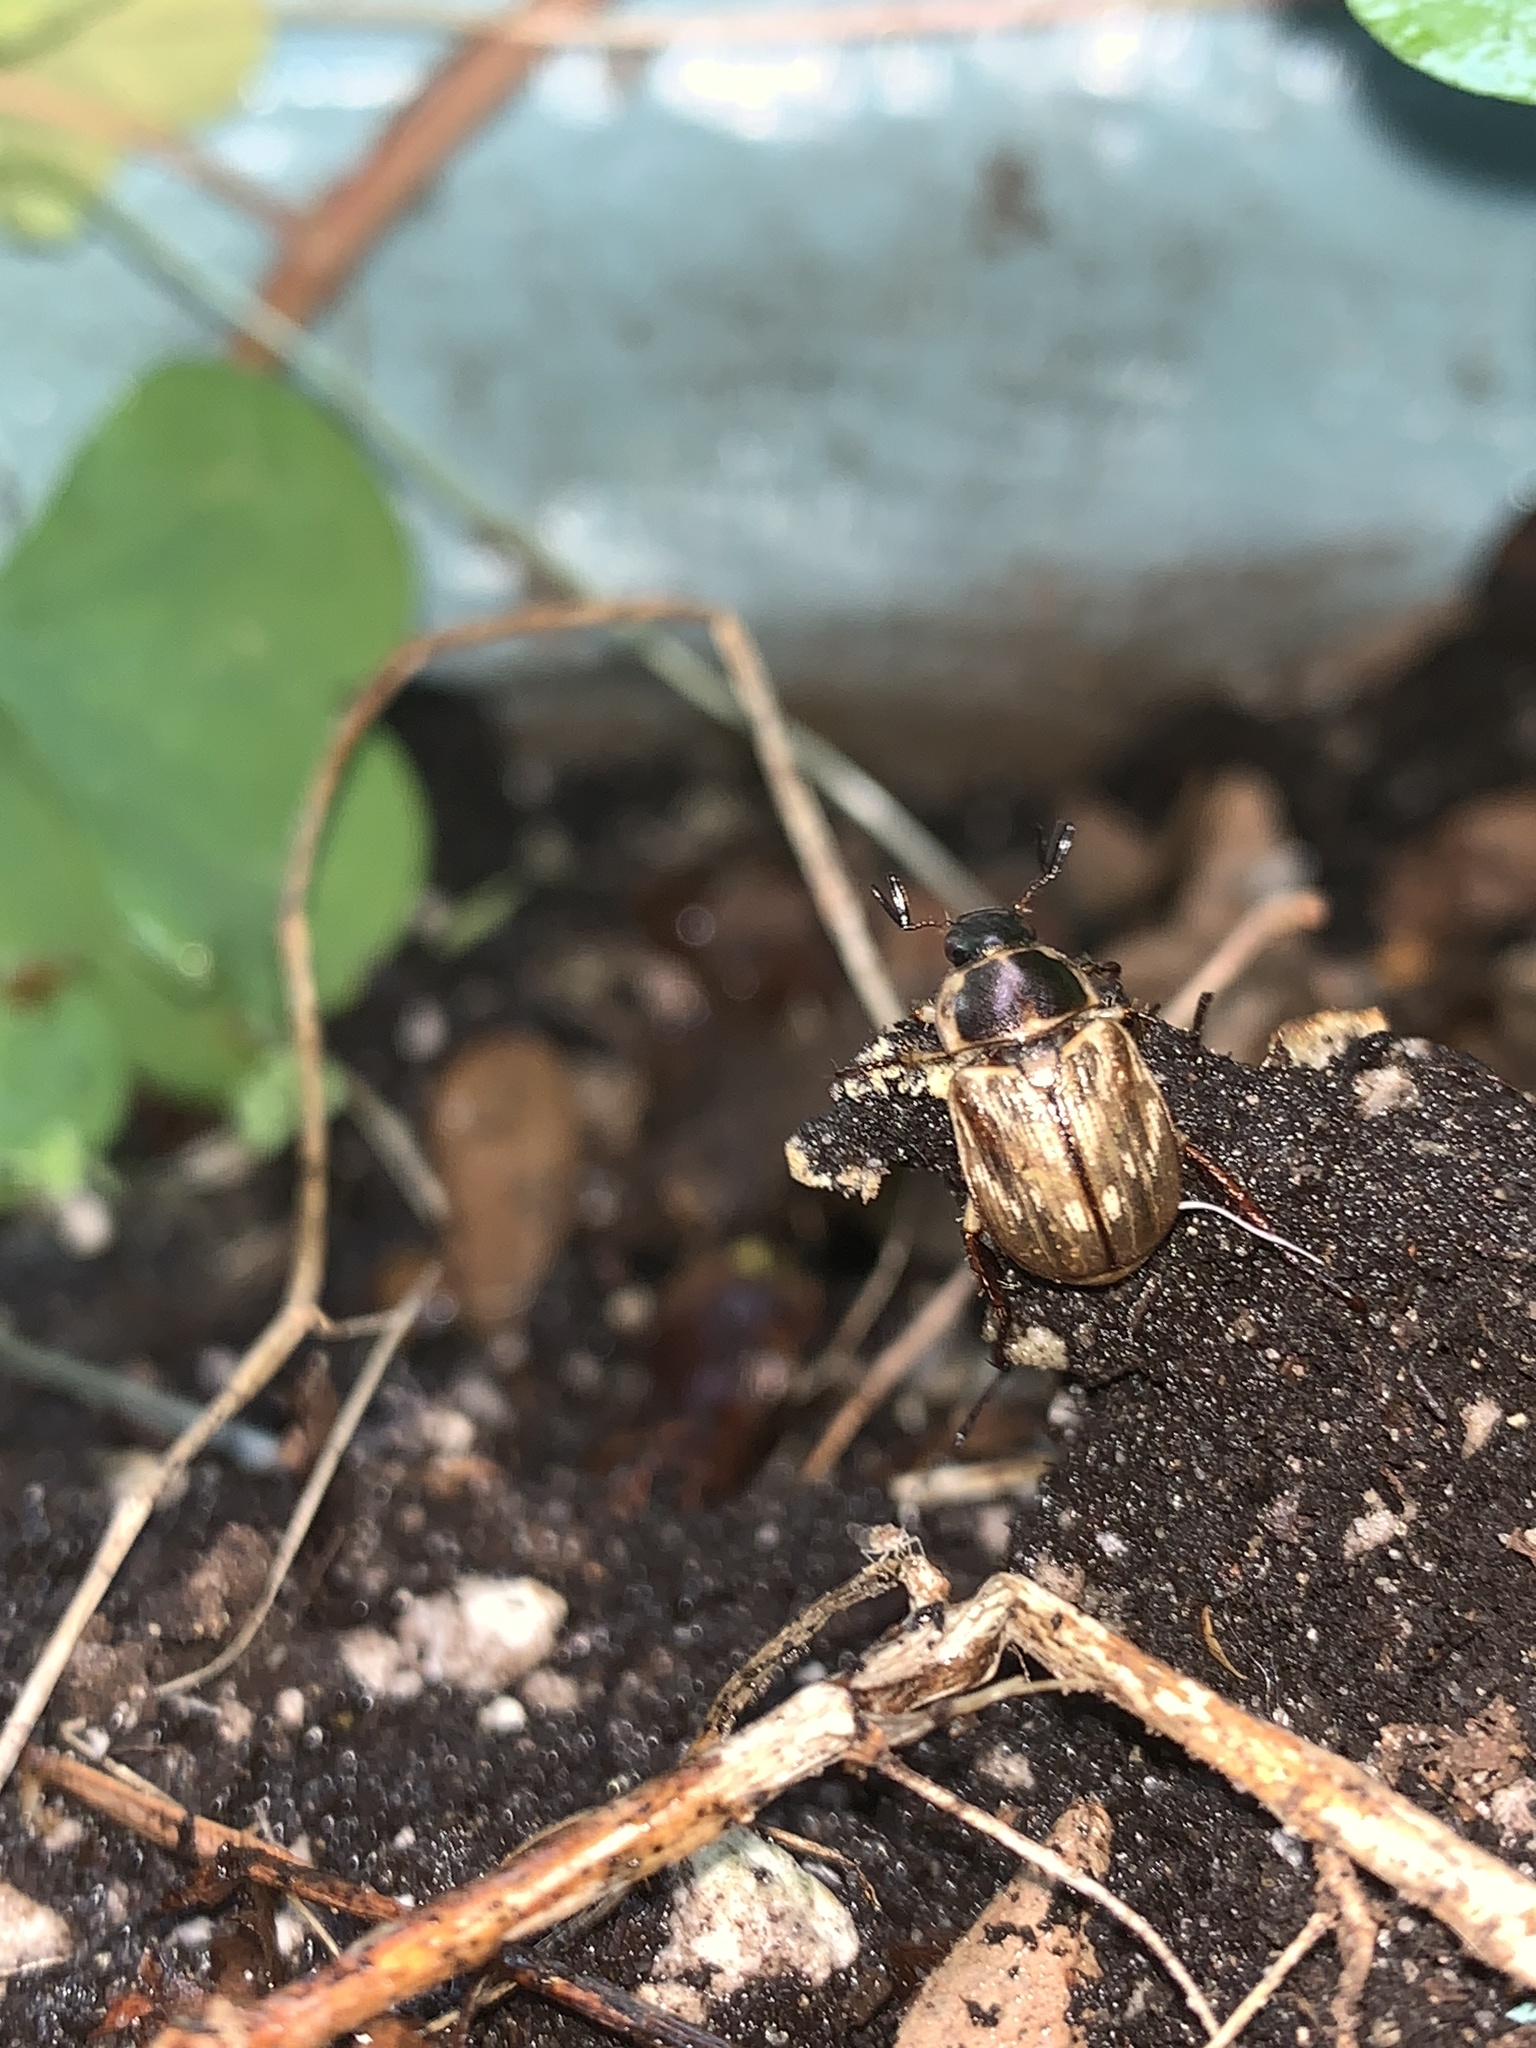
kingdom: Animalia
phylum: Arthropoda
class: Insecta
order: Coleoptera
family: Scarabaeidae
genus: Exomala
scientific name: Exomala orientalis
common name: Oriental beetle
